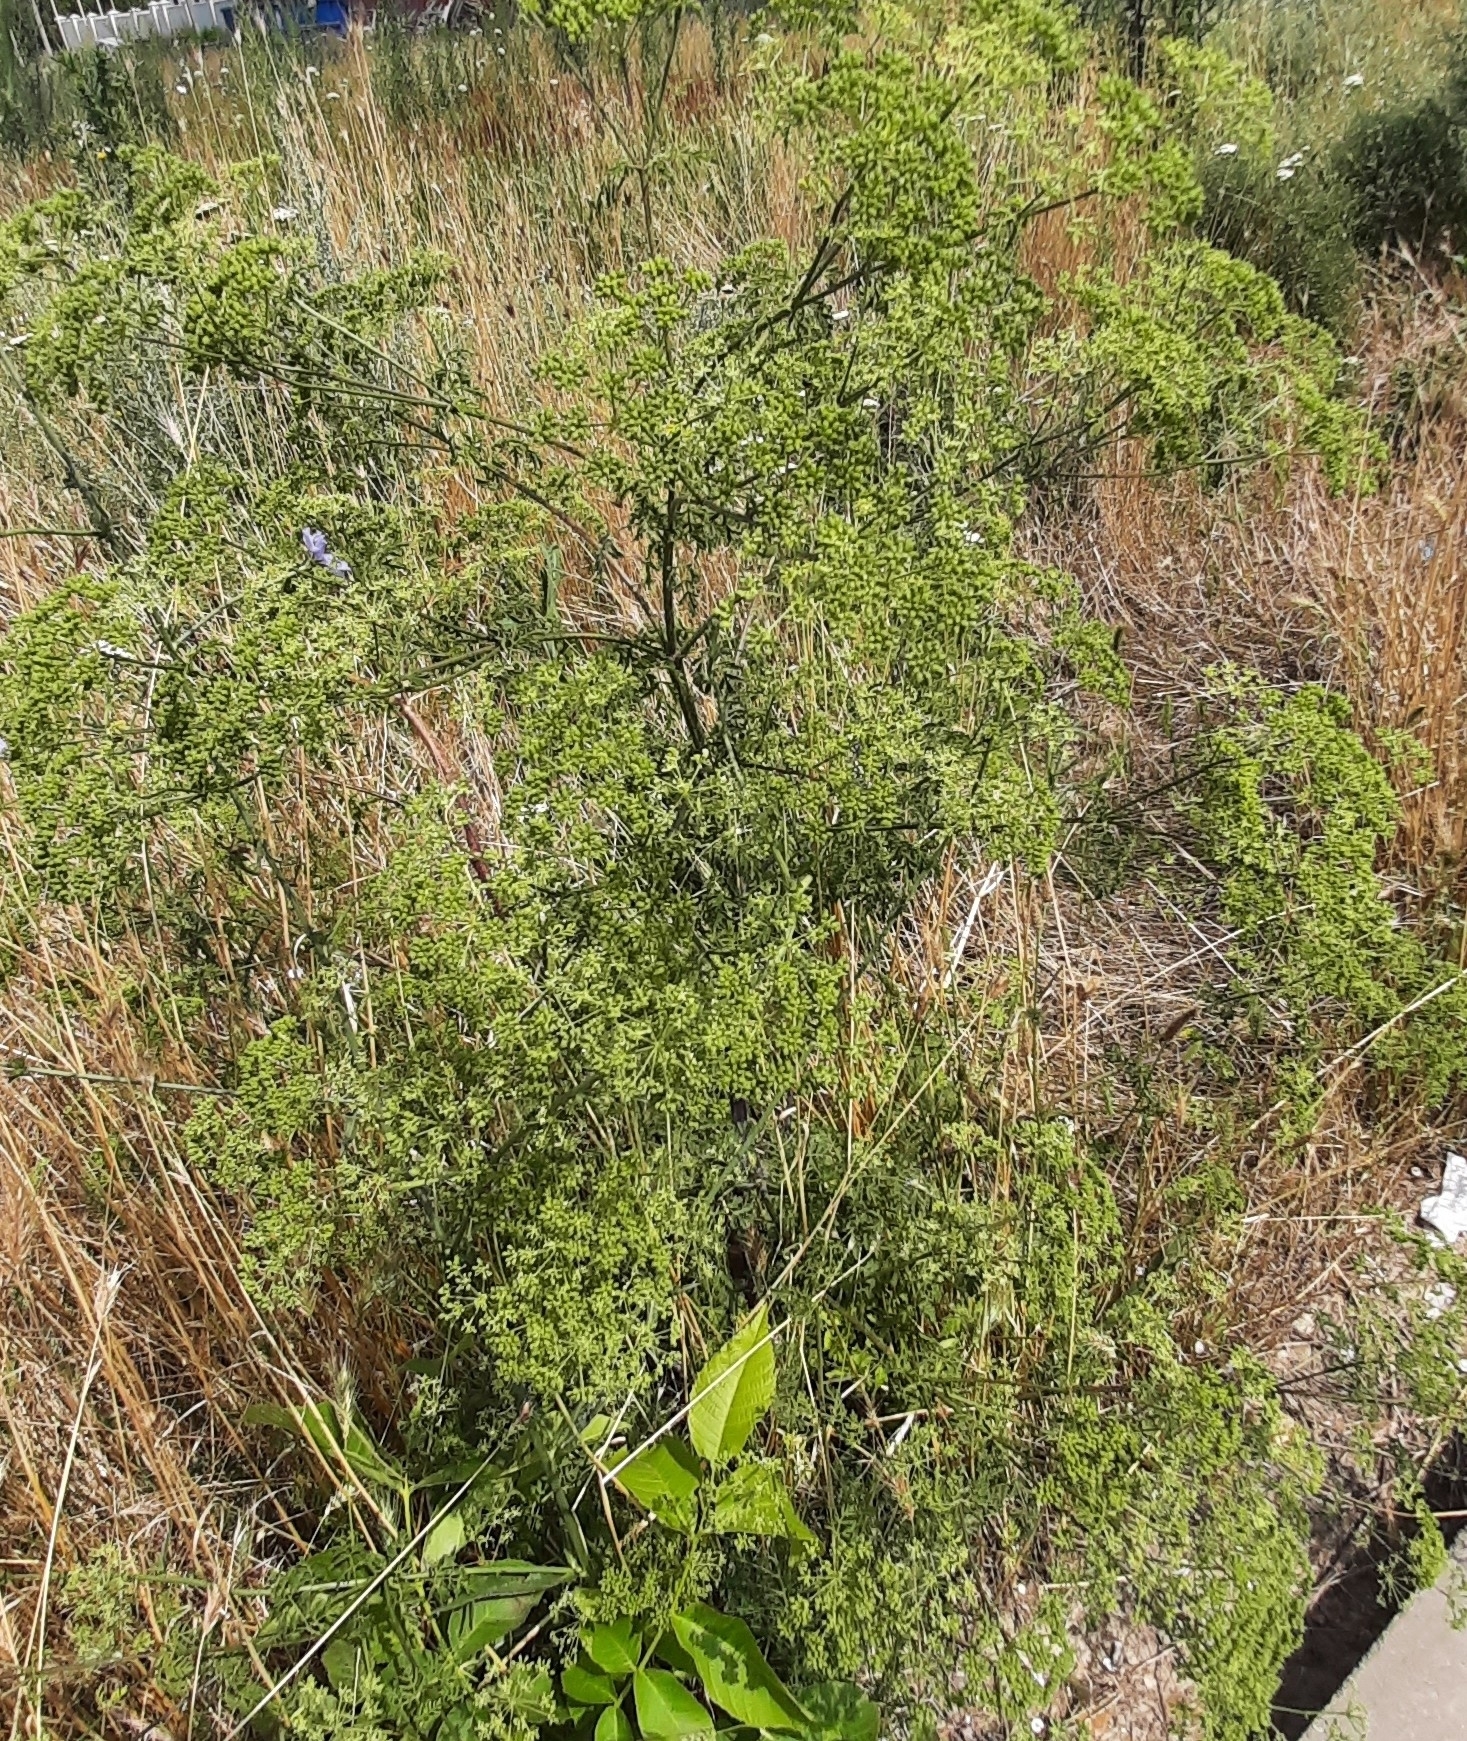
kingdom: Plantae
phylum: Tracheophyta
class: Magnoliopsida
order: Apiales
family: Apiaceae
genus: Conium
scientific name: Conium maculatum
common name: Hemlock
